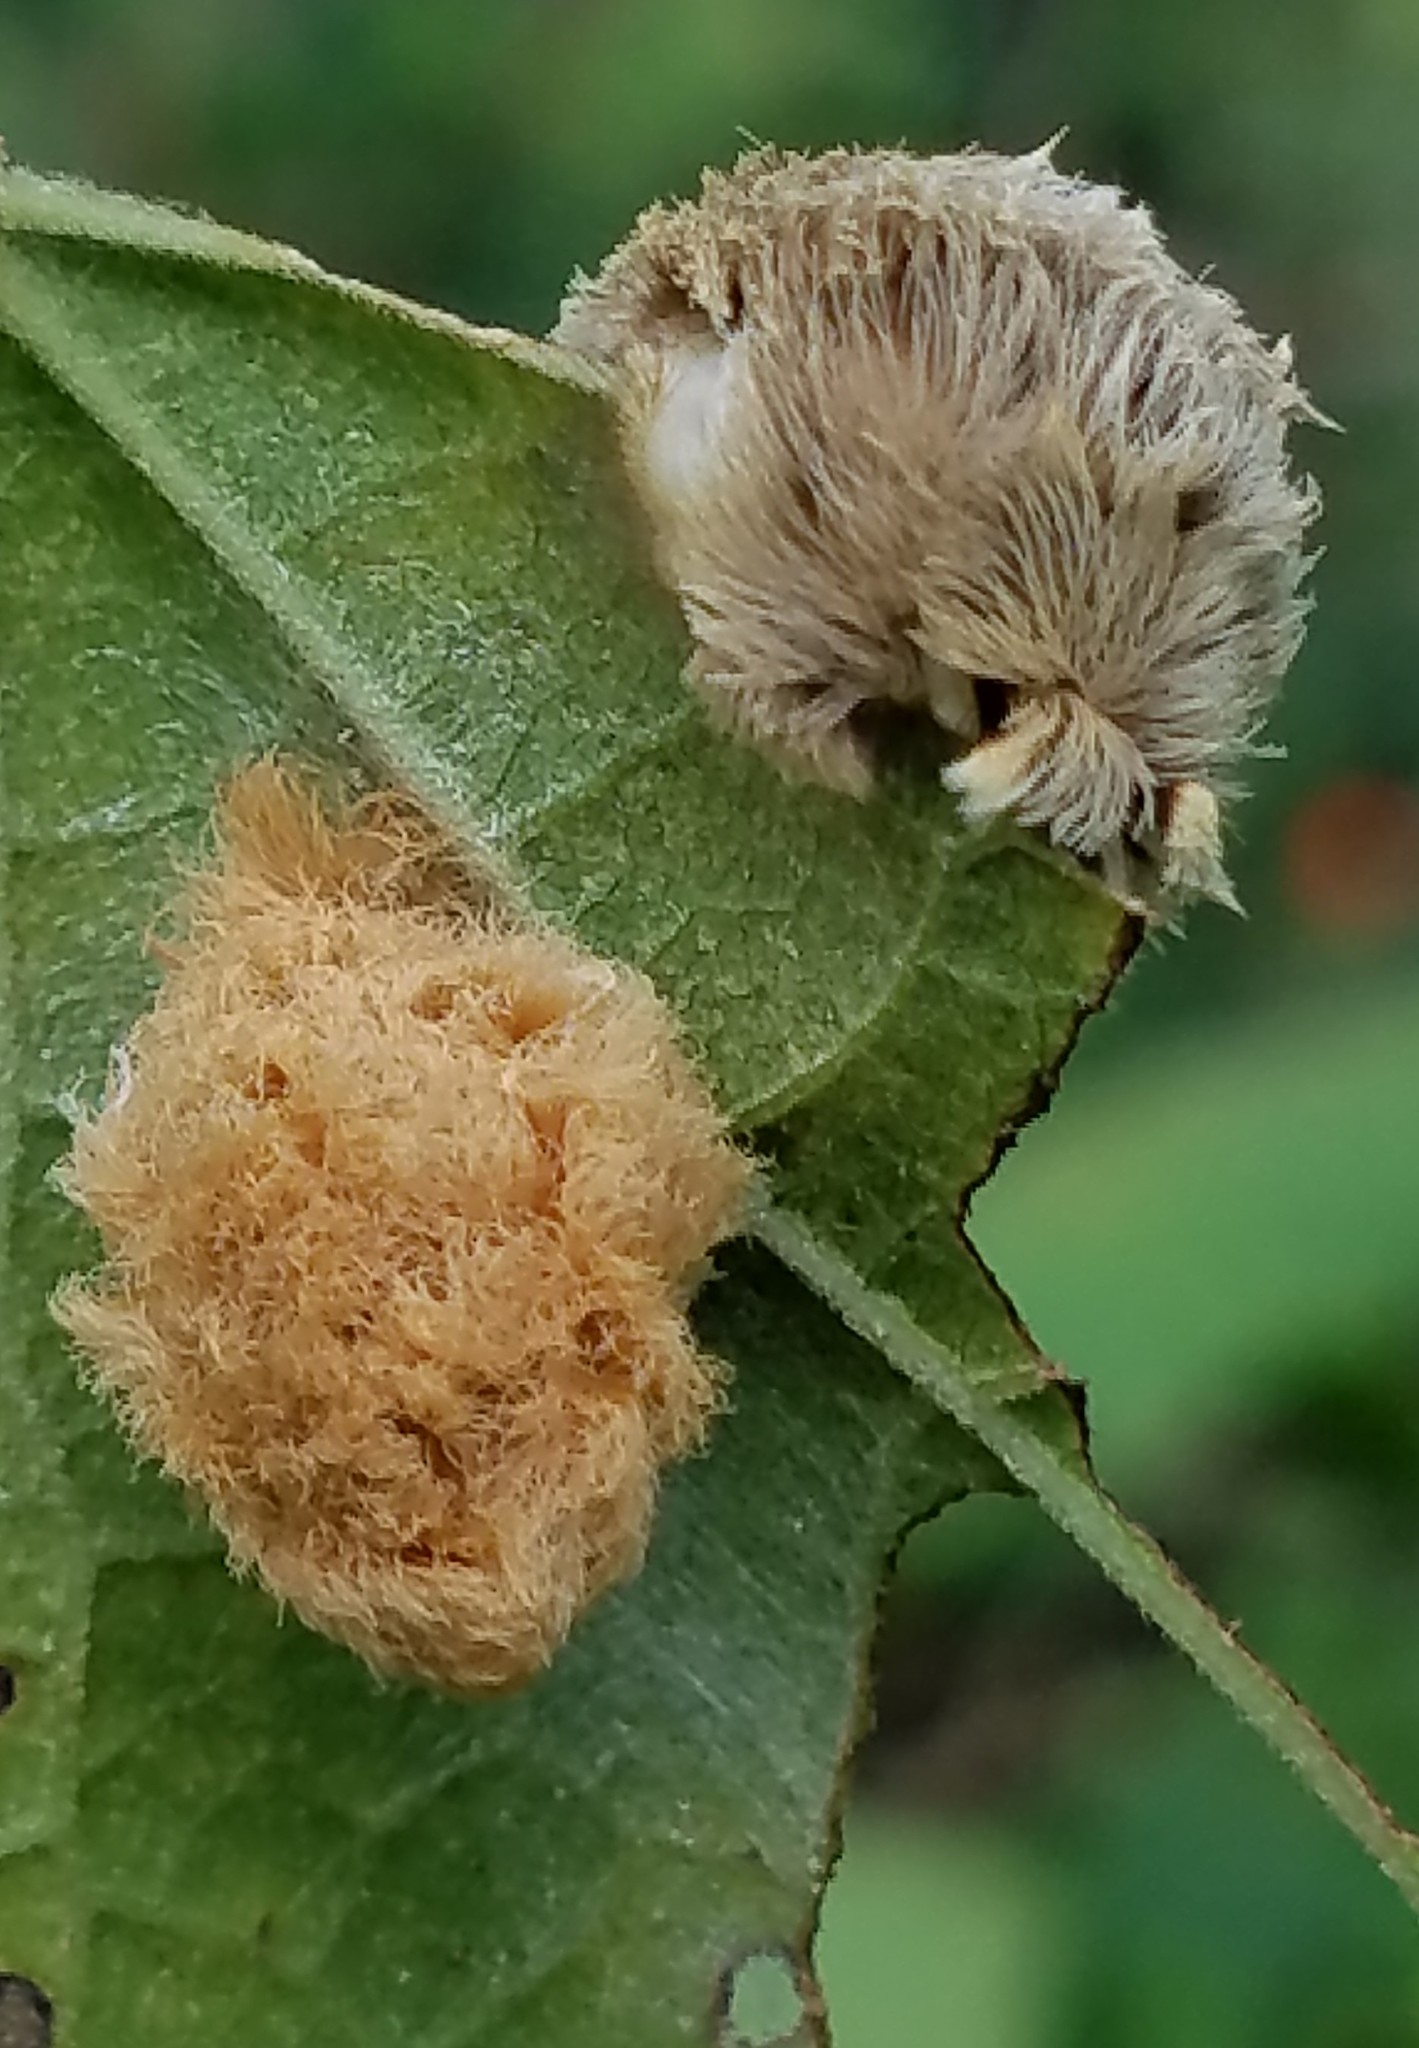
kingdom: Animalia
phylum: Arthropoda
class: Insecta
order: Lepidoptera
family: Megalopygidae
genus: Megalopyge
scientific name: Megalopyge opercularis
